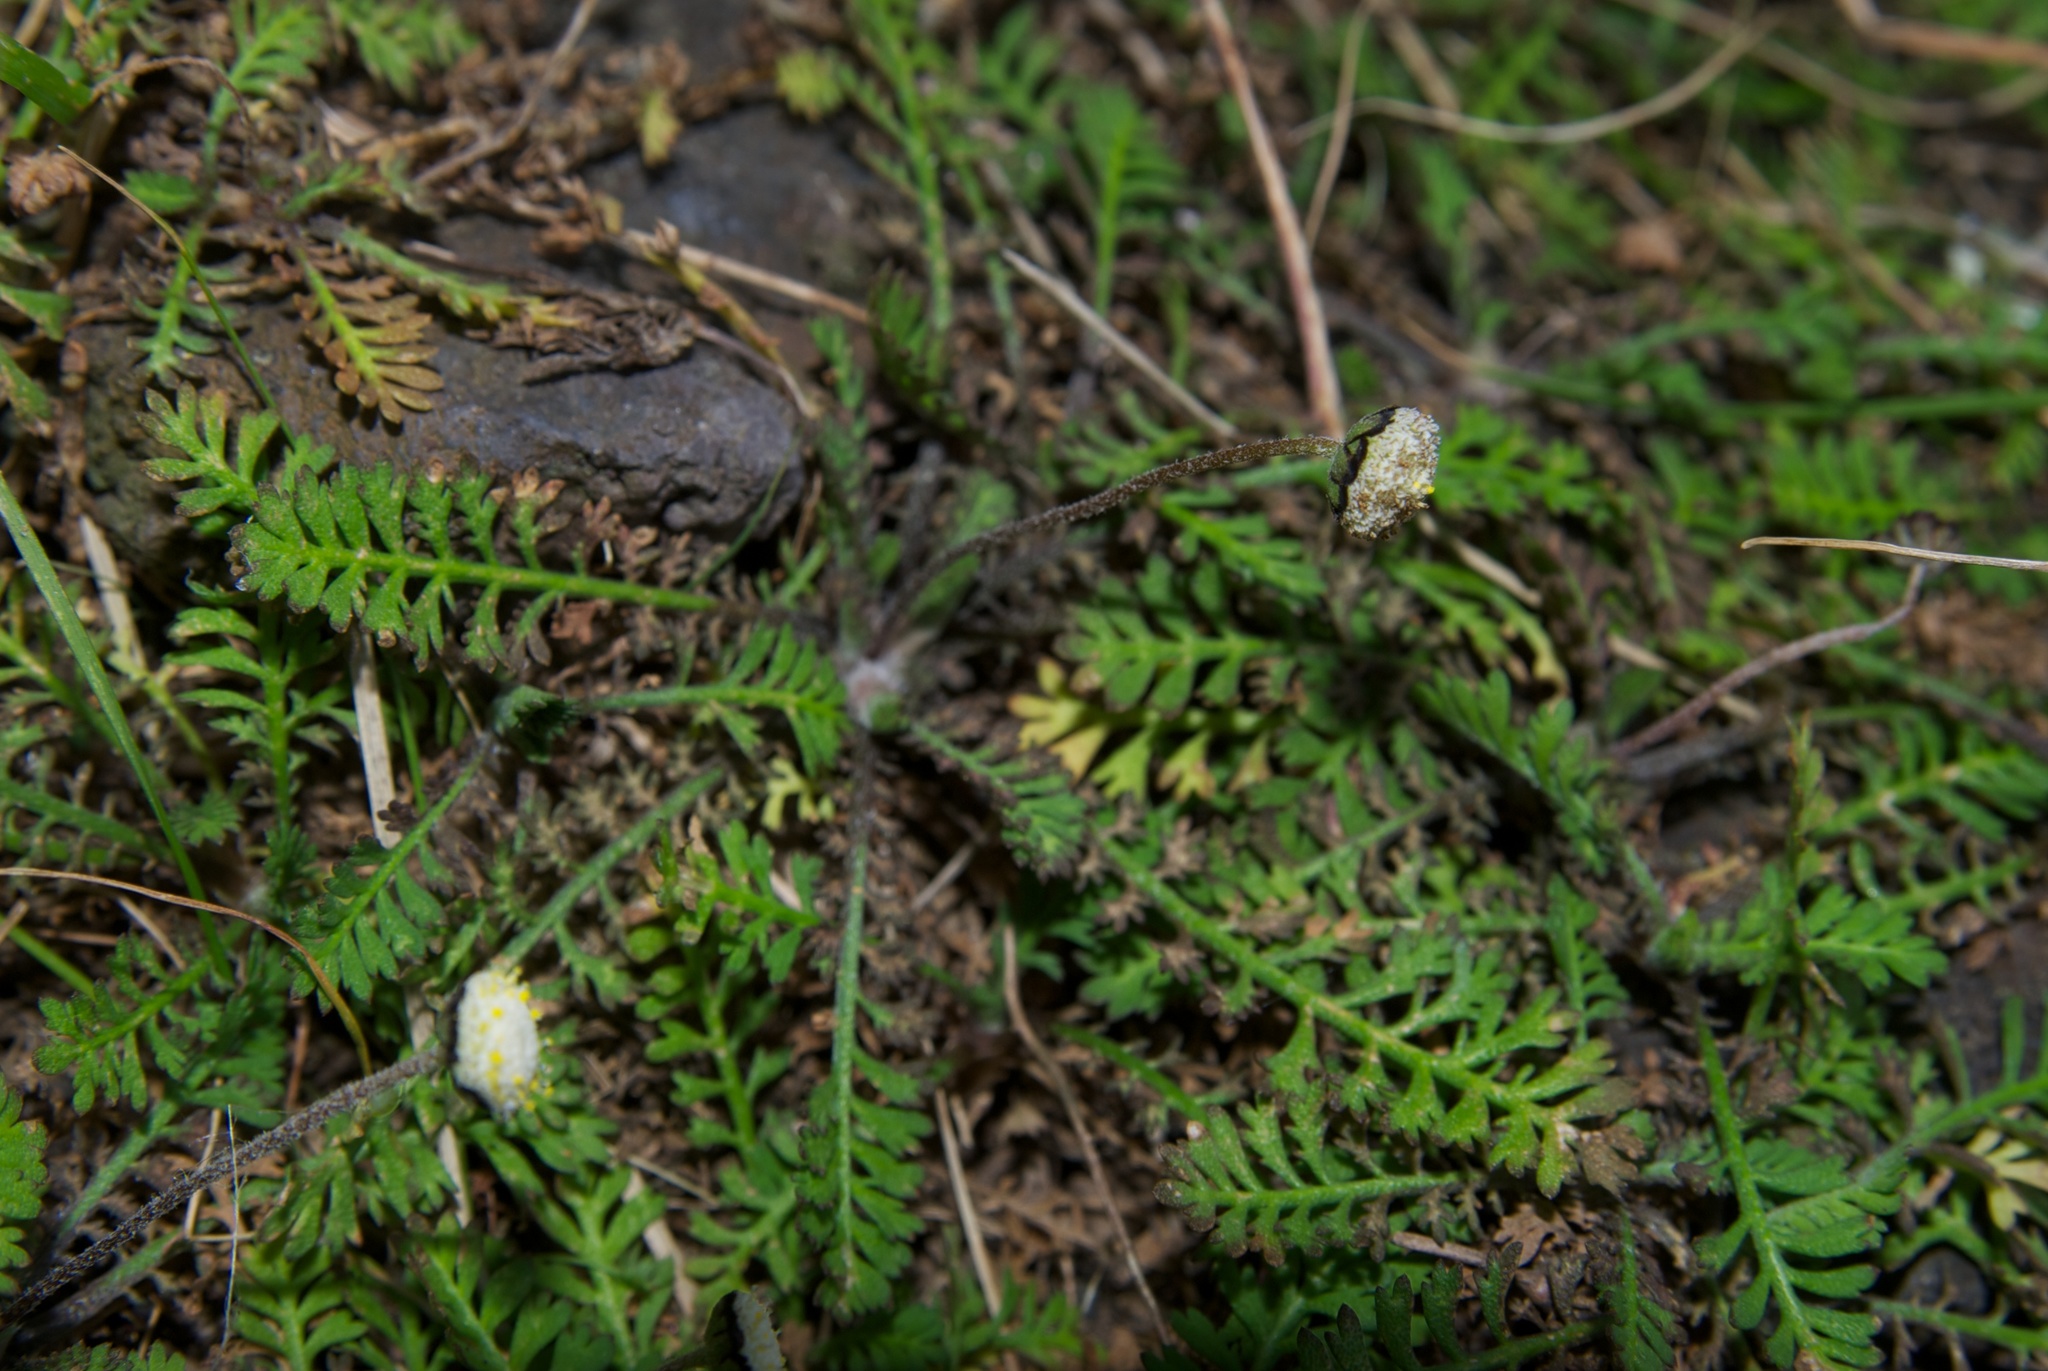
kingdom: Plantae
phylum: Tracheophyta
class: Magnoliopsida
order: Asterales
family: Asteraceae
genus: Leptinella
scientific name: Leptinella minor
